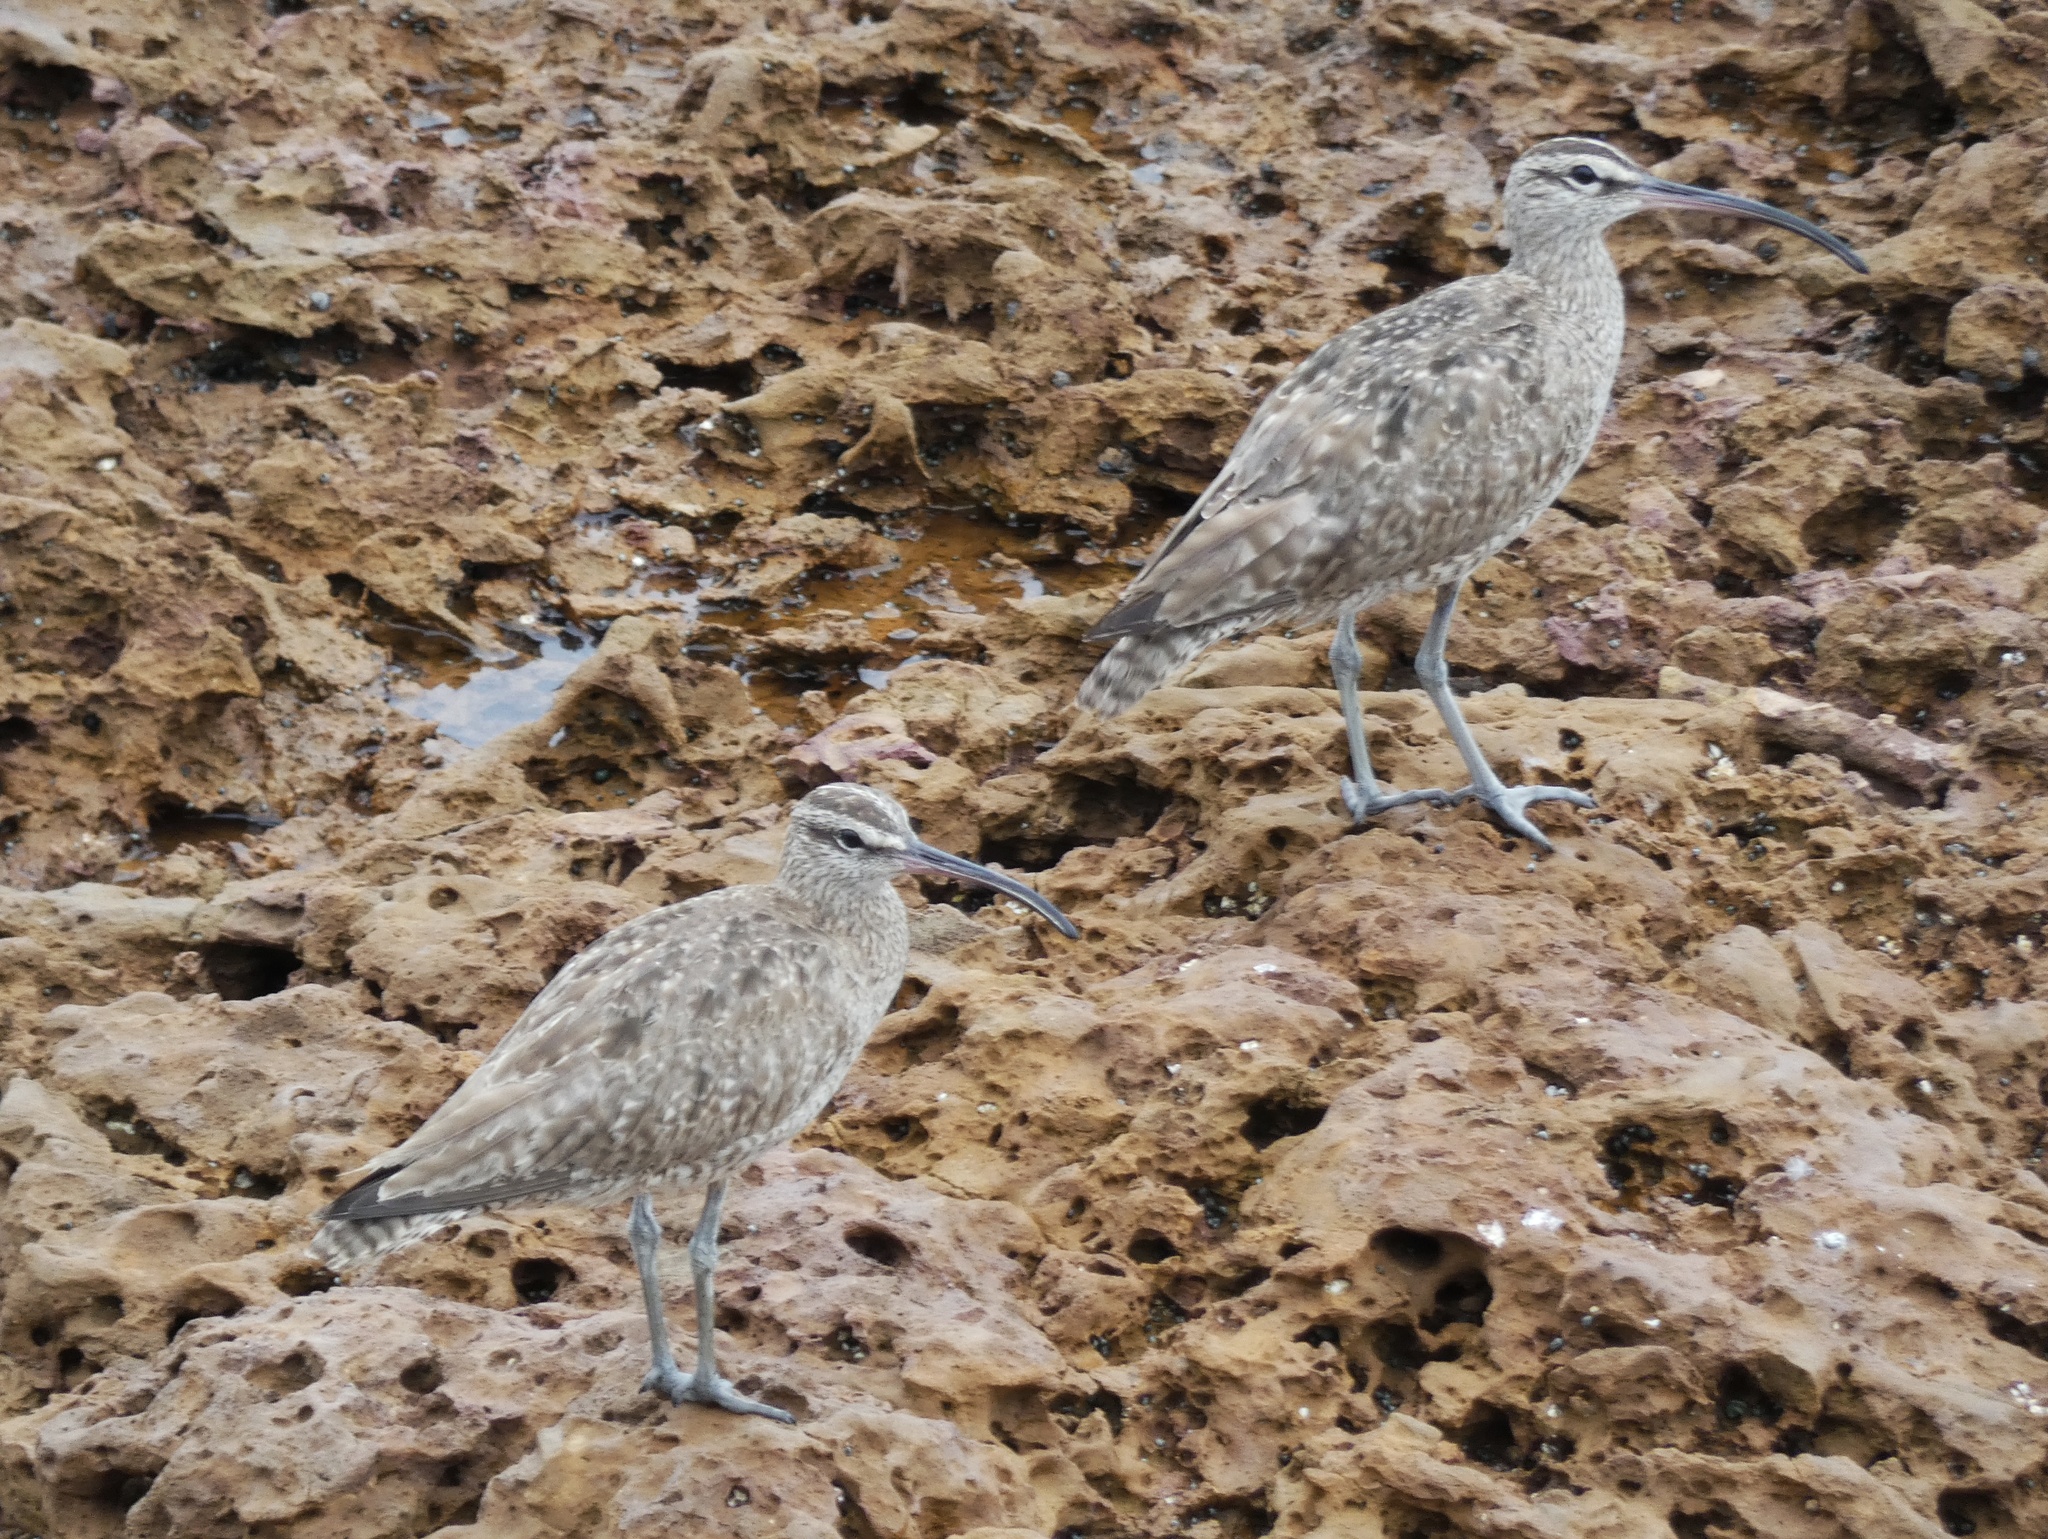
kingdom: Animalia
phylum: Chordata
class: Aves
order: Charadriiformes
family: Scolopacidae
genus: Numenius
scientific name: Numenius phaeopus
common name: Whimbrel
